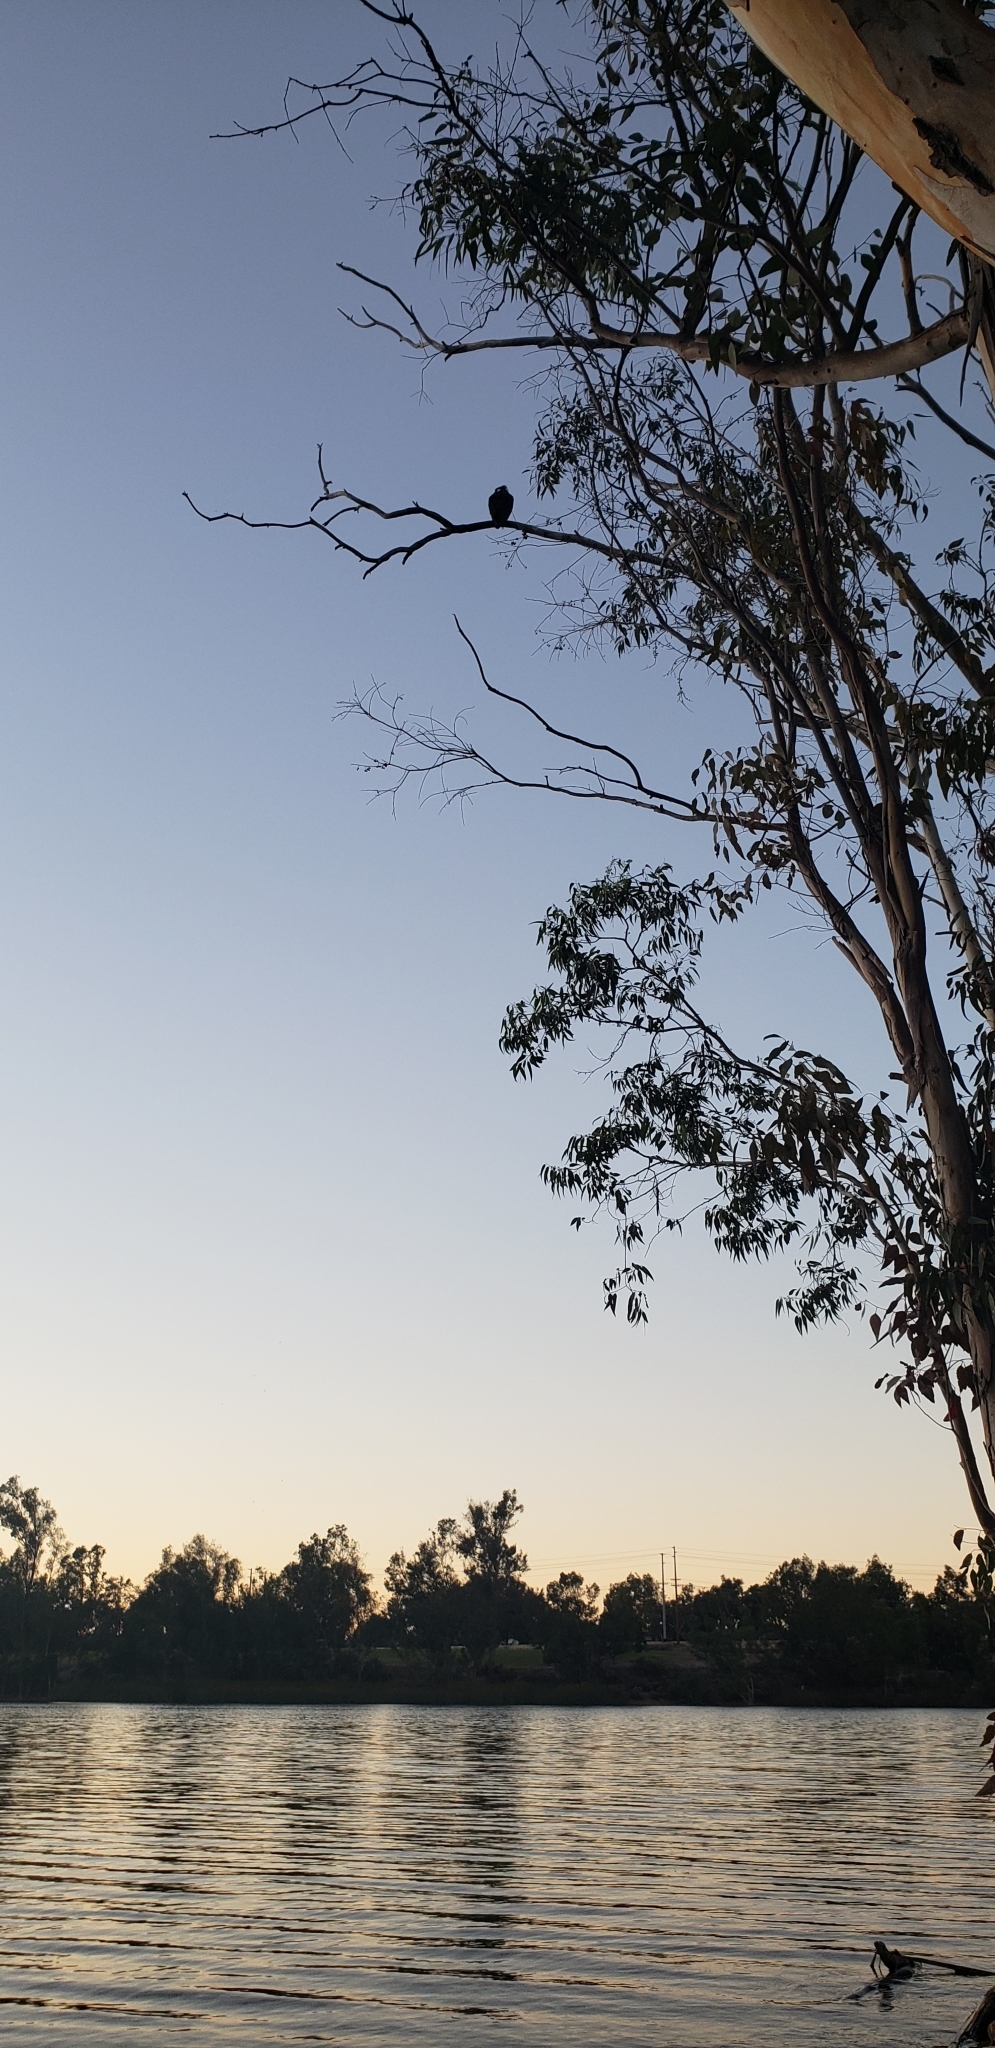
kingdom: Animalia
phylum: Chordata
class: Aves
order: Accipitriformes
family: Pandionidae
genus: Pandion
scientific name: Pandion haliaetus
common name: Osprey
